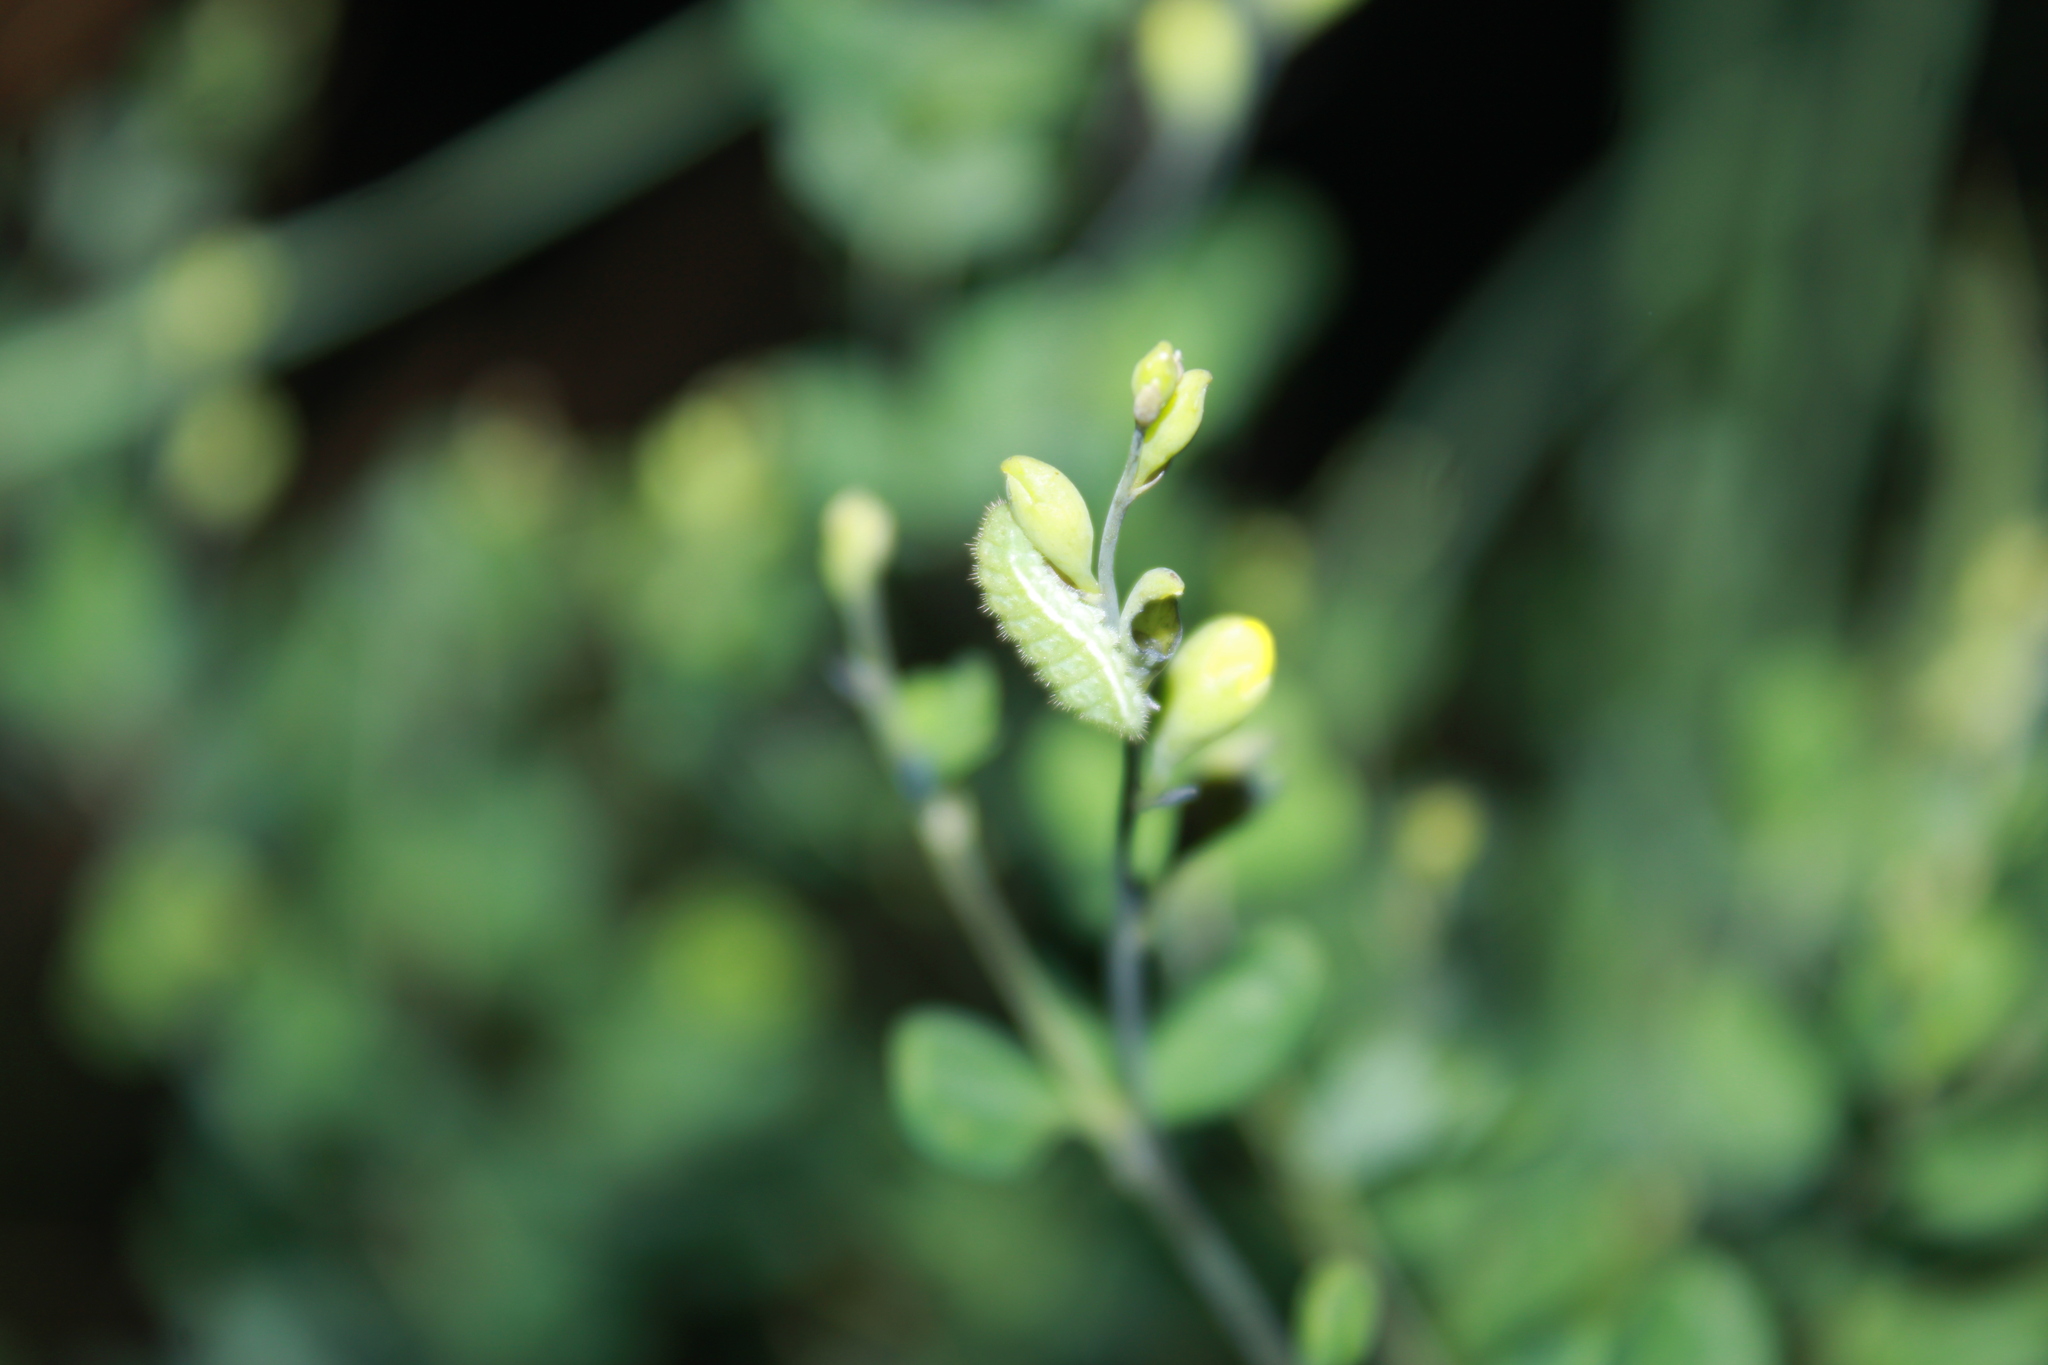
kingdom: Animalia
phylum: Arthropoda
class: Insecta
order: Lepidoptera
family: Lycaenidae
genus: Thecla
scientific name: Thecla irus
